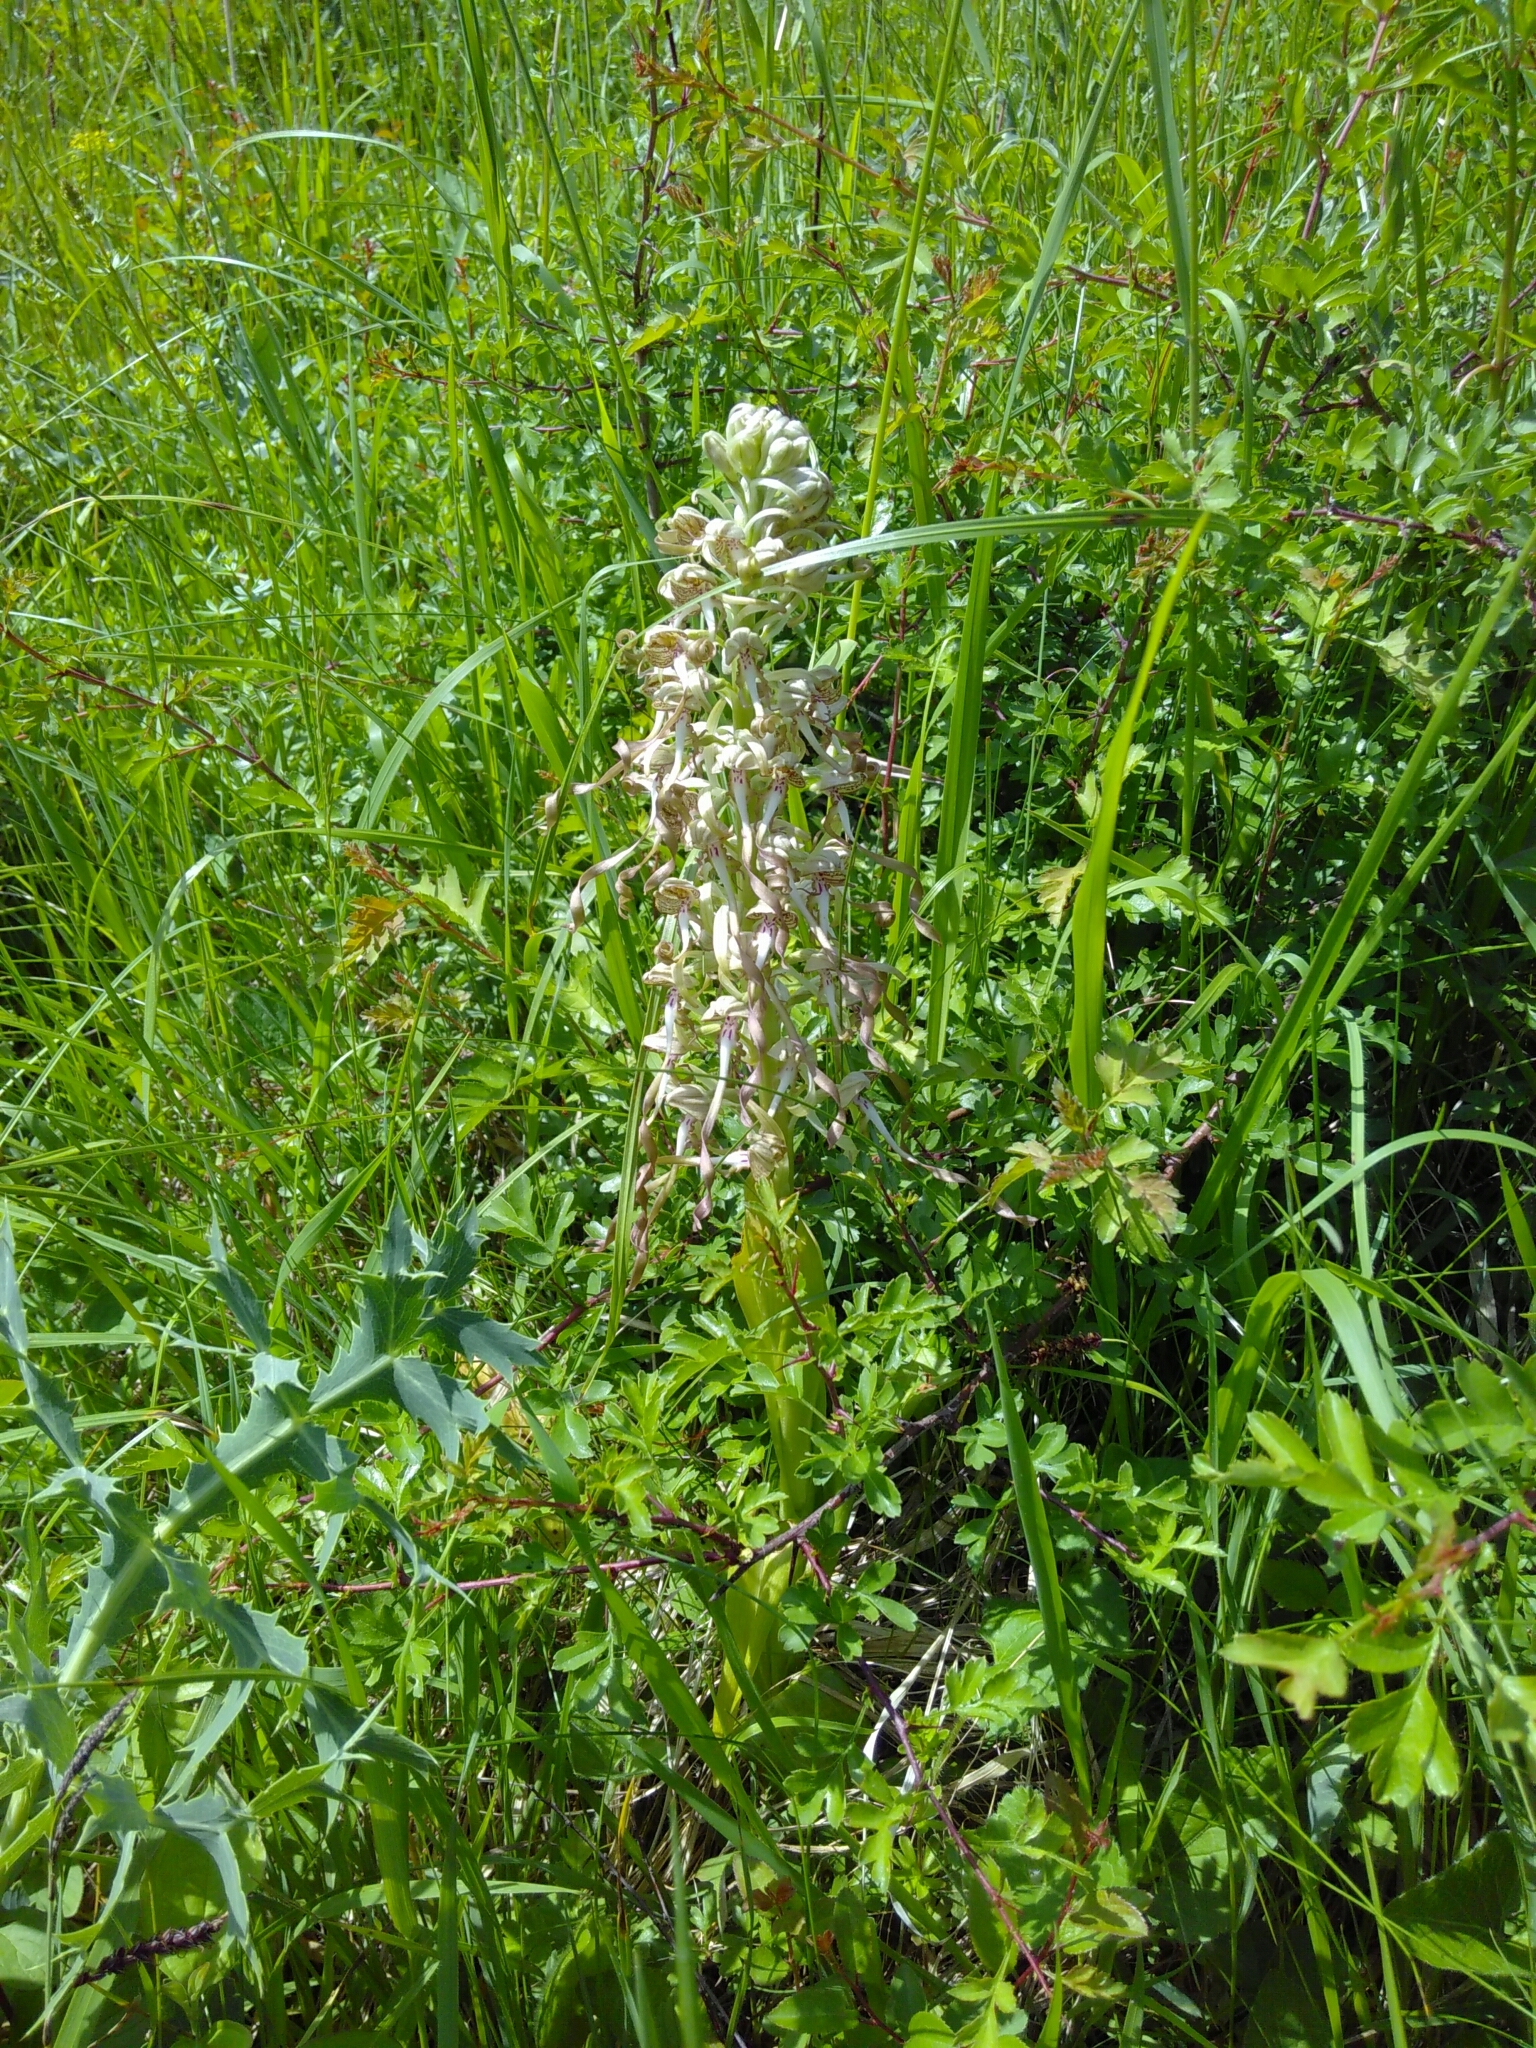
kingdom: Plantae
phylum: Tracheophyta
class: Liliopsida
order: Asparagales
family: Orchidaceae
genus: Himantoglossum
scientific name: Himantoglossum hircinum
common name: Lizard orchid
